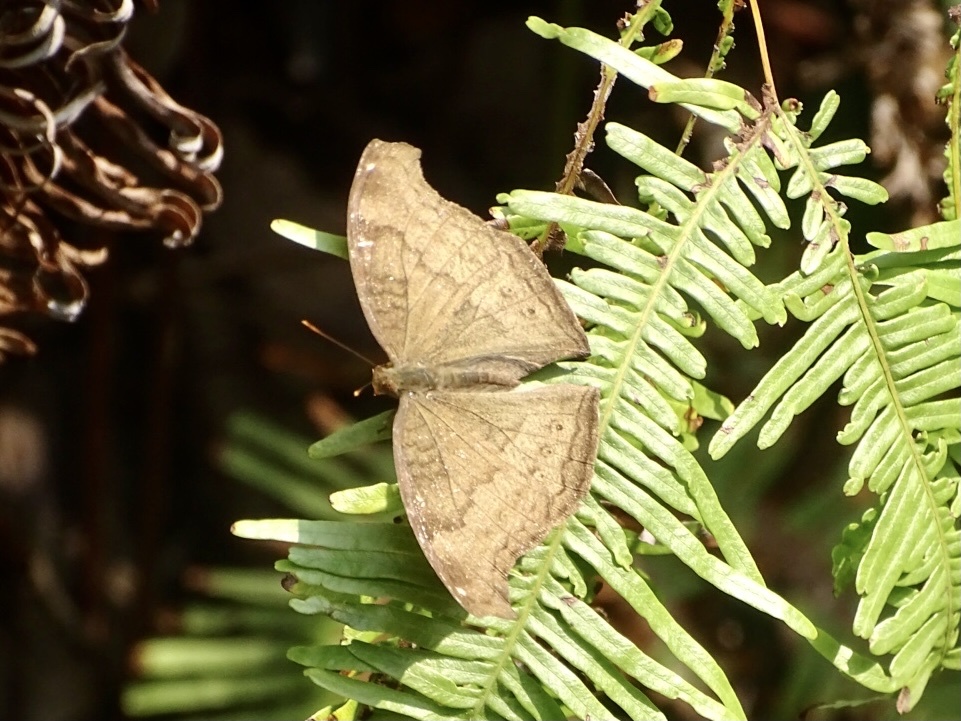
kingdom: Animalia
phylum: Arthropoda
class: Insecta
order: Lepidoptera
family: Nymphalidae
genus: Junonia
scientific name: Junonia iphita
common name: Chocolate pansy
